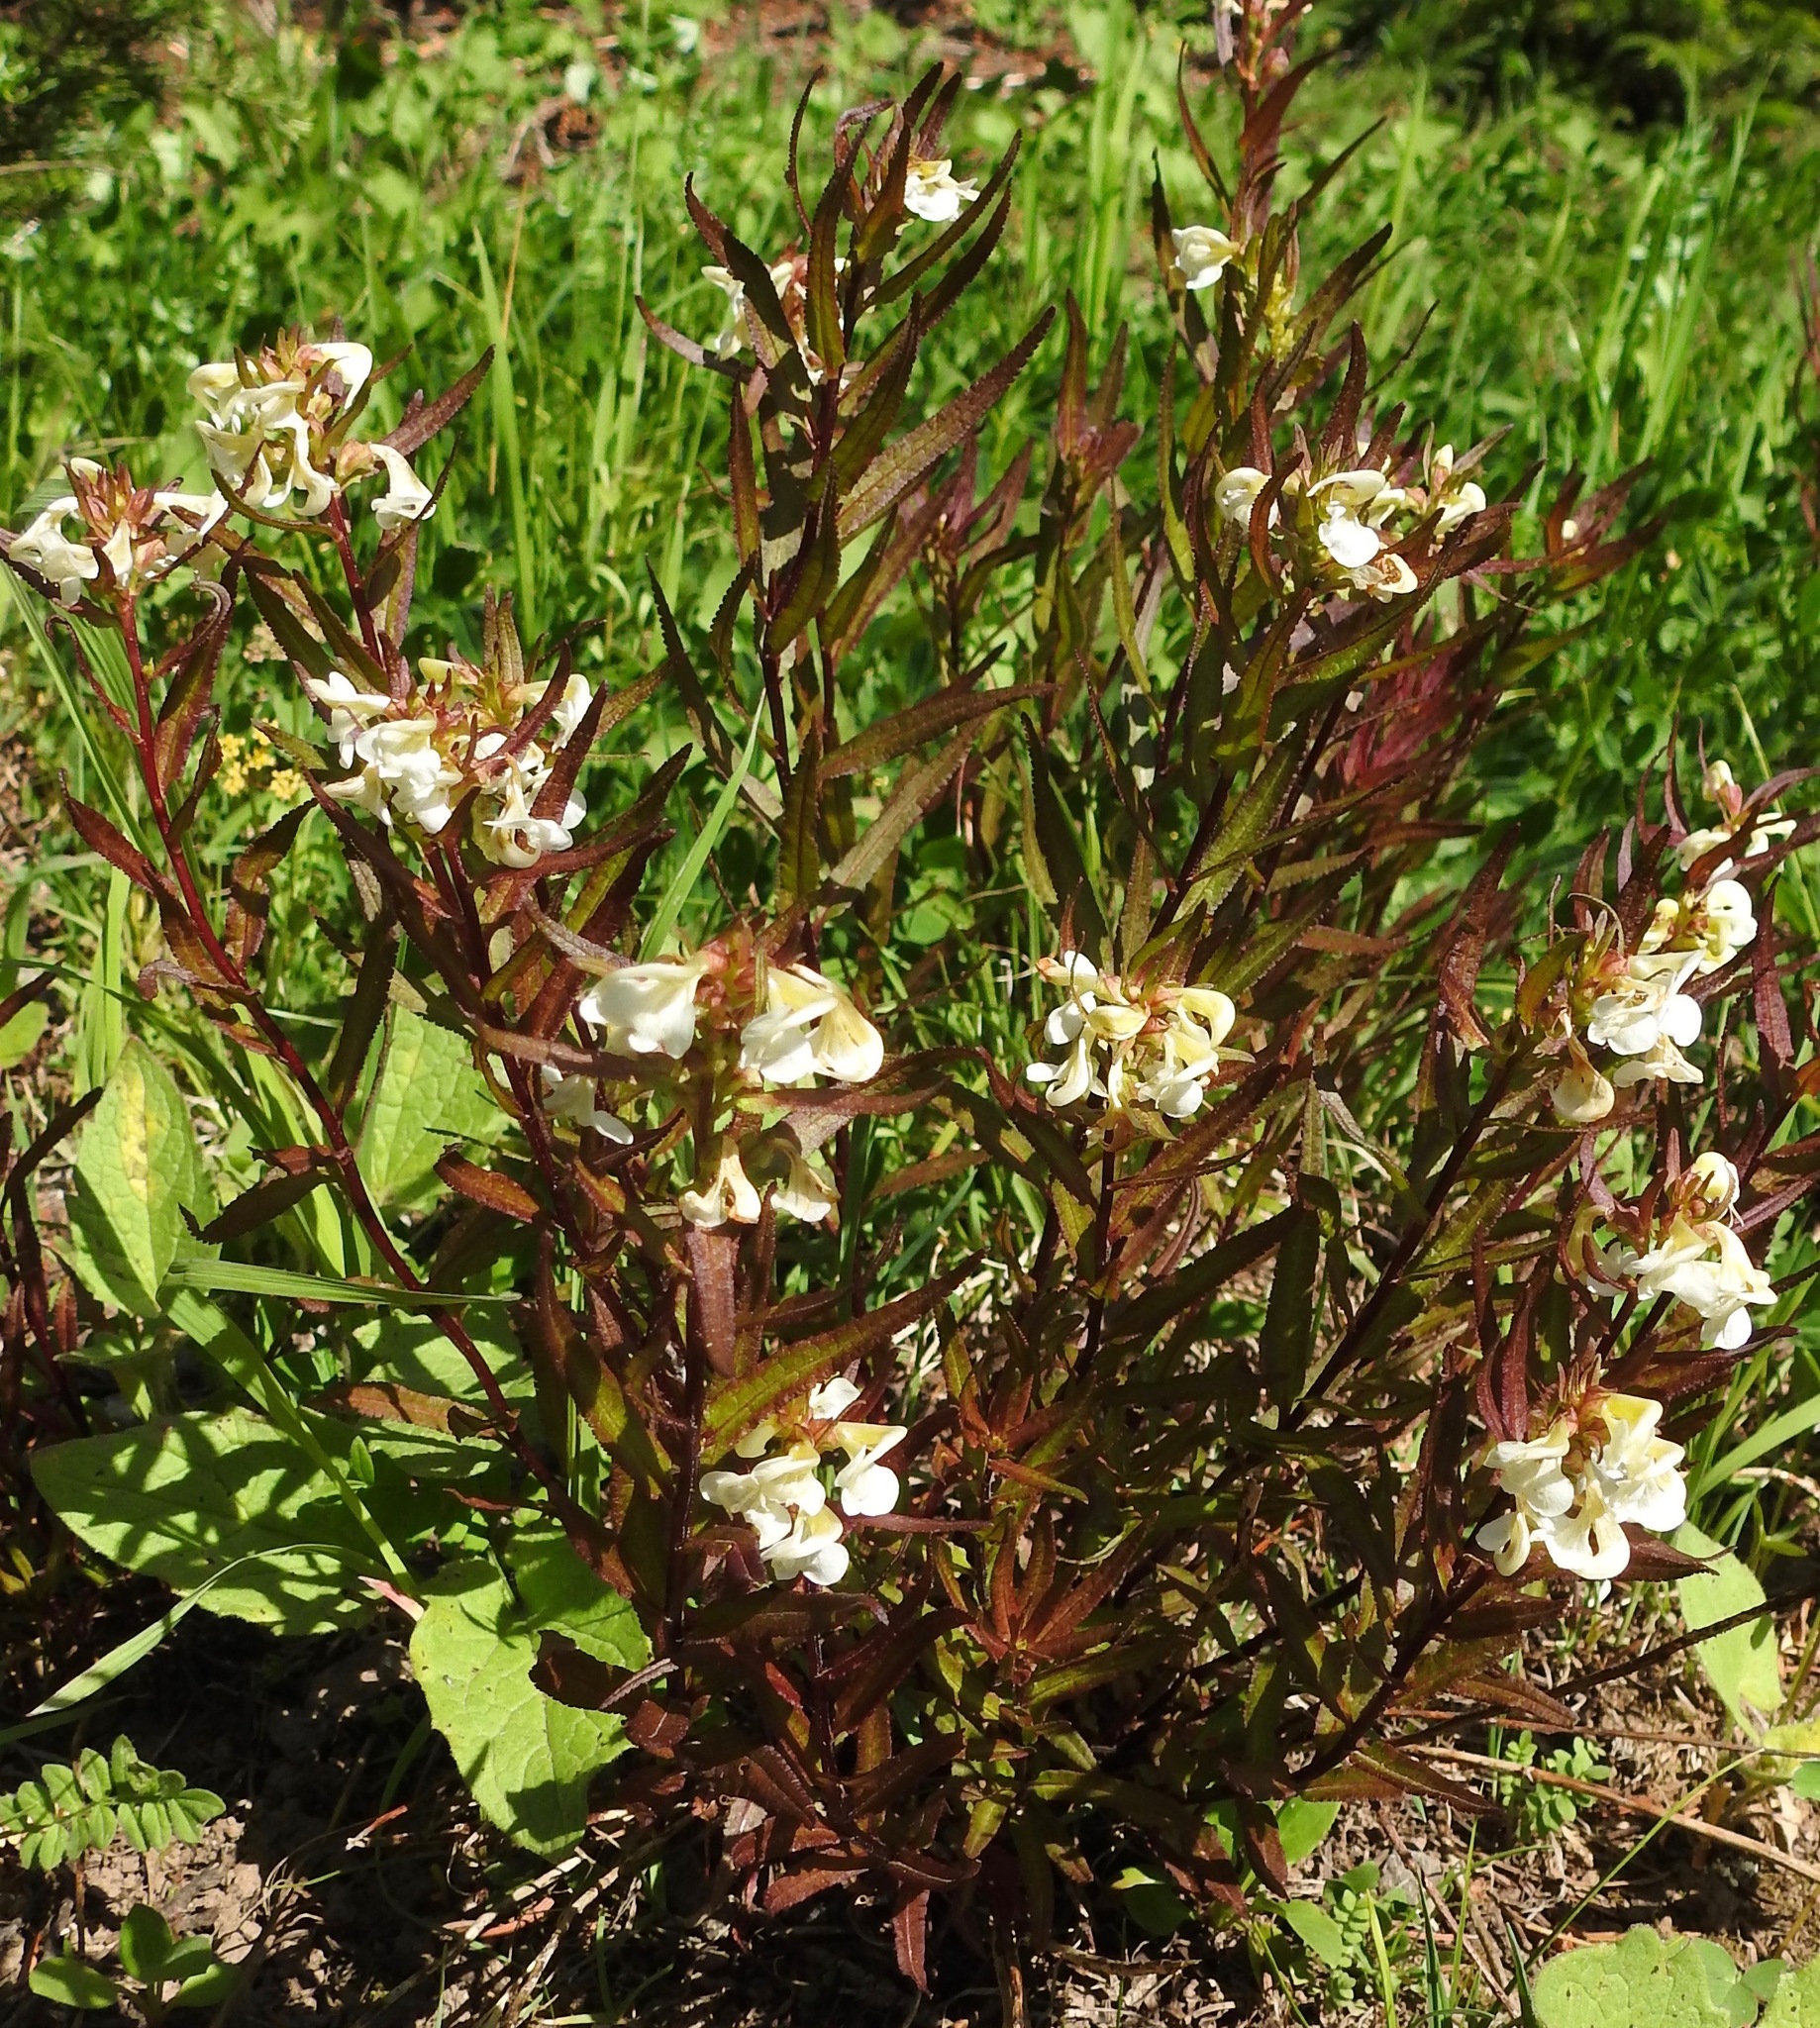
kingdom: Plantae
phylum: Tracheophyta
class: Magnoliopsida
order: Lamiales
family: Orobanchaceae
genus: Pedicularis
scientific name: Pedicularis racemosa
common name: Leafy lousewort
